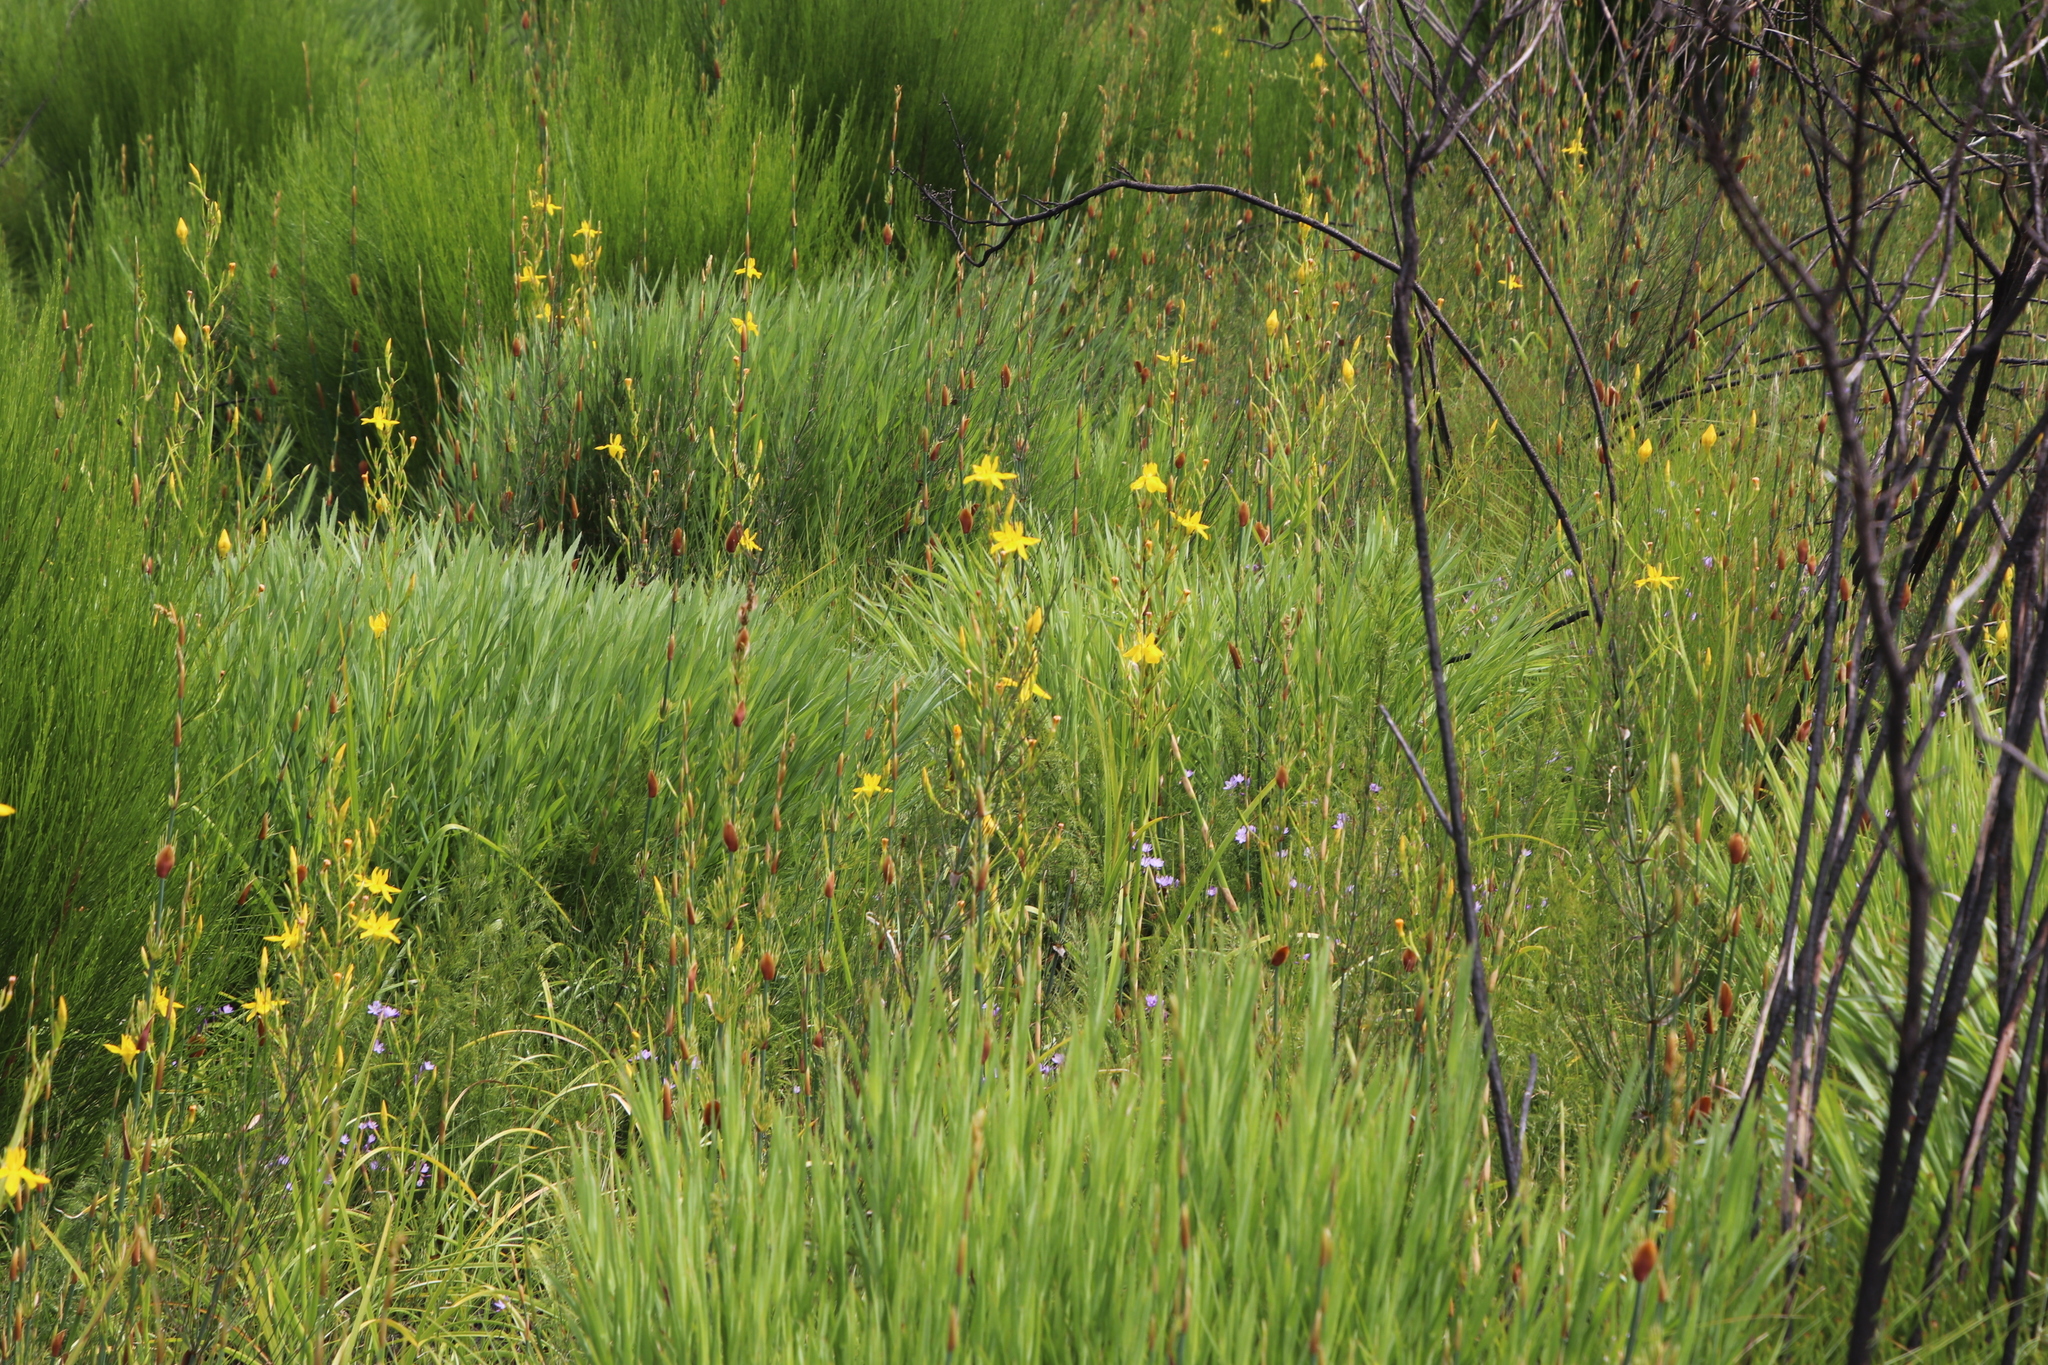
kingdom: Plantae
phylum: Tracheophyta
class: Liliopsida
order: Asparagales
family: Iridaceae
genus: Moraea
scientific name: Moraea ramosissima
